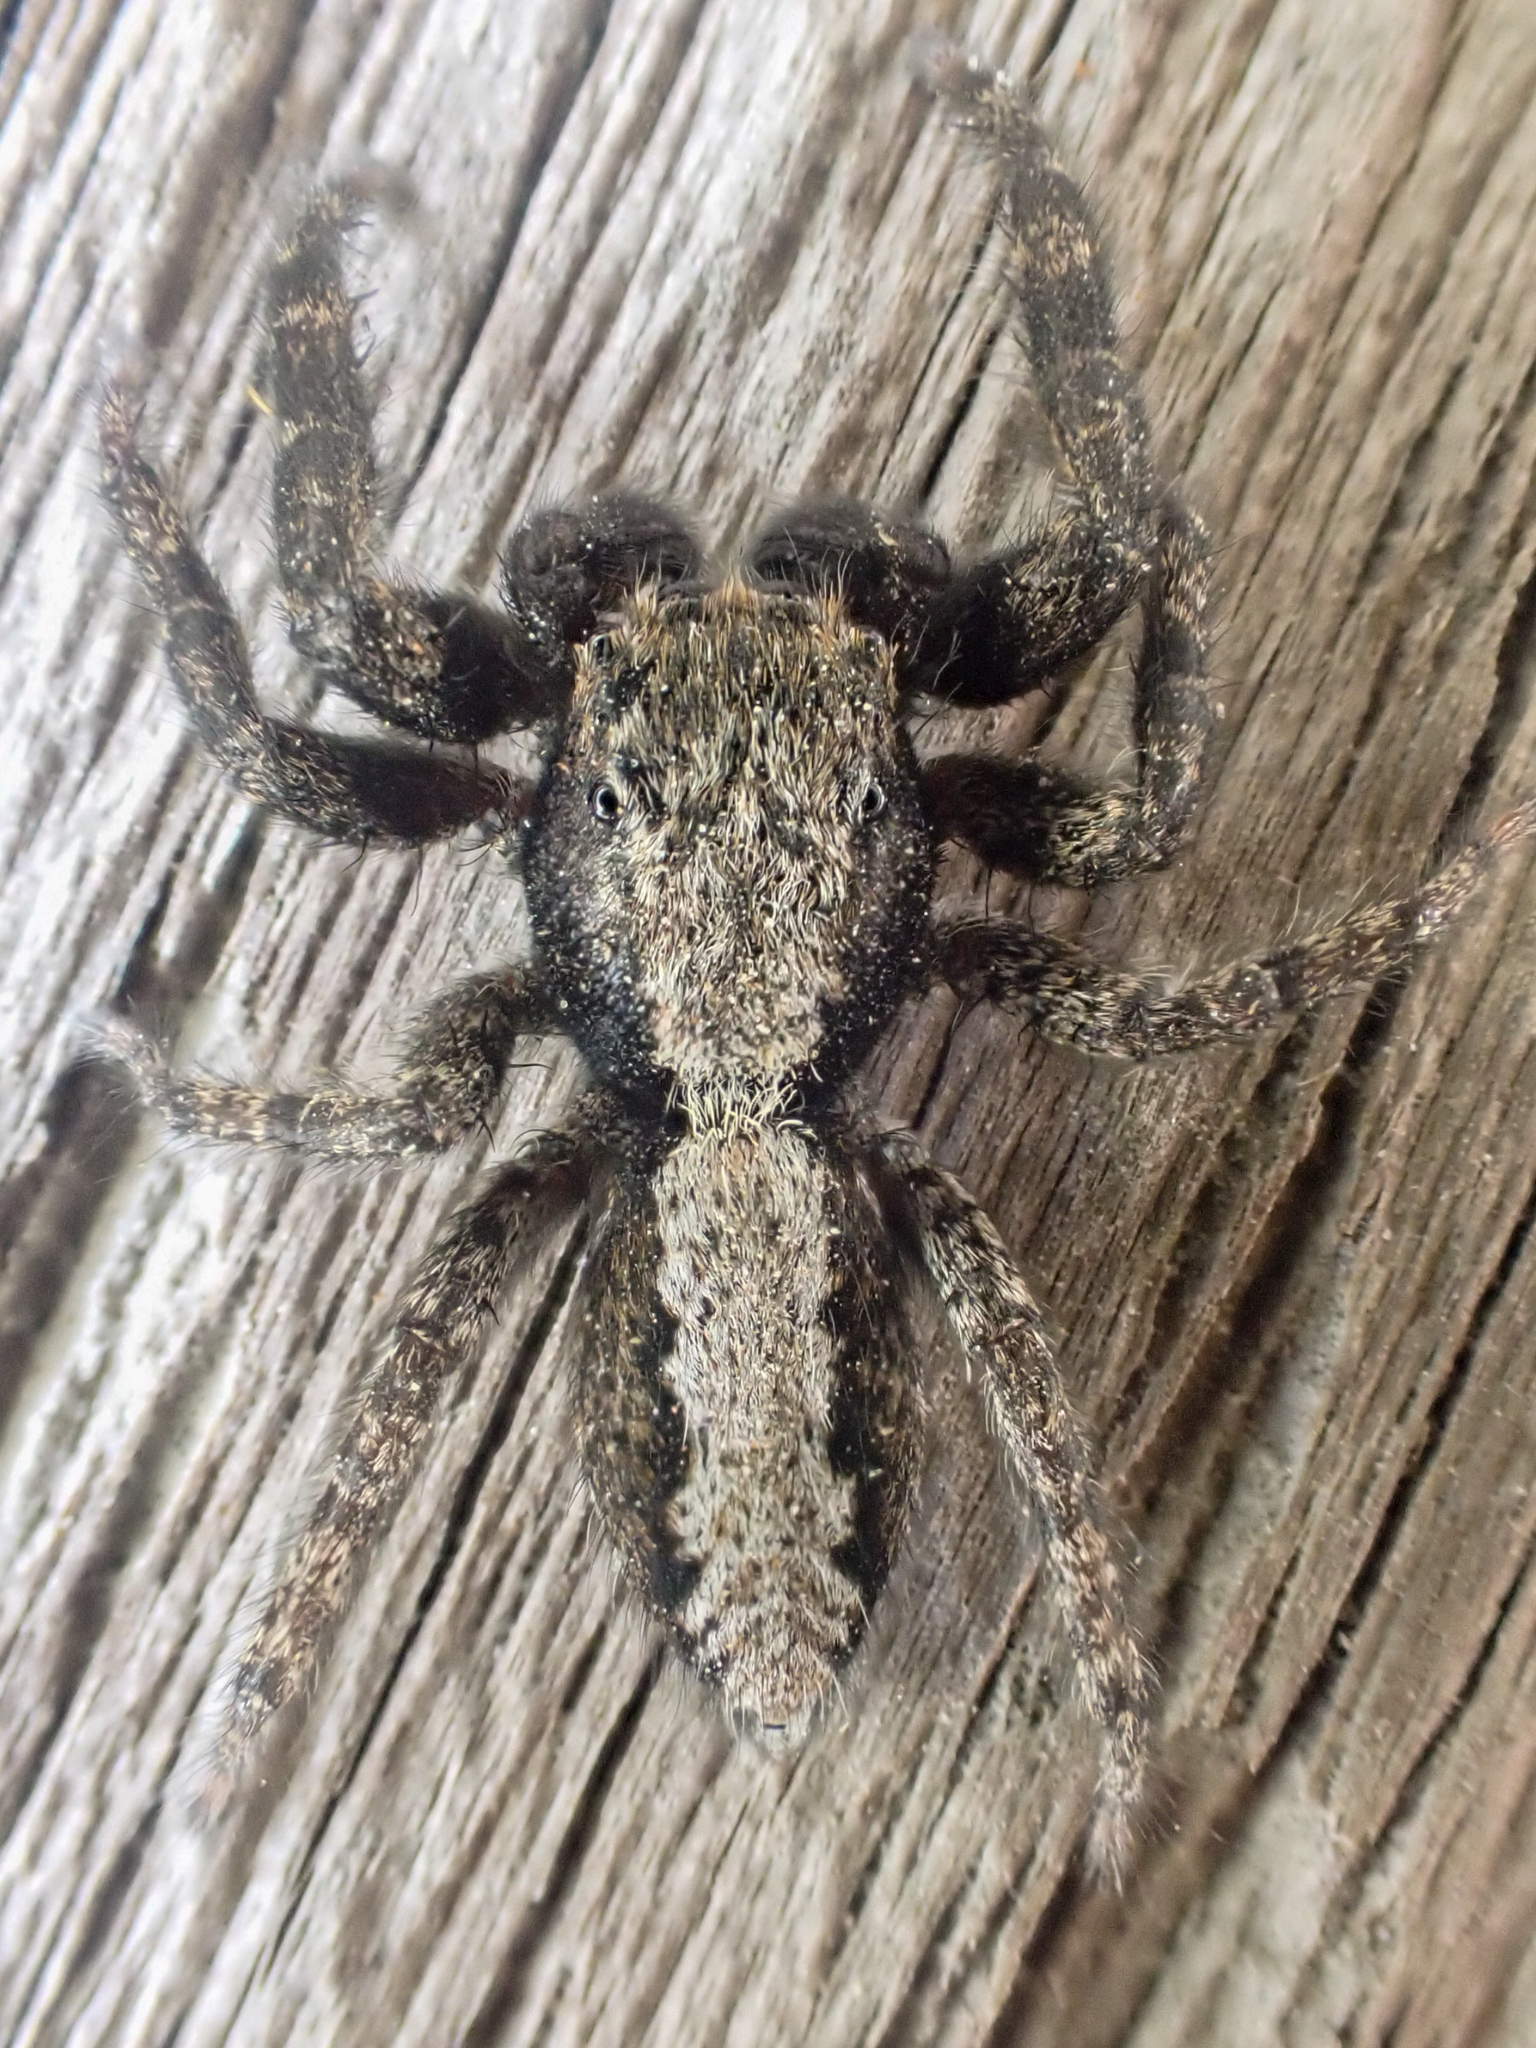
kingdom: Animalia
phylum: Arthropoda
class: Arachnida
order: Araneae
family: Salticidae
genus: Platycryptus
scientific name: Platycryptus californicus
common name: Jumping spiders
